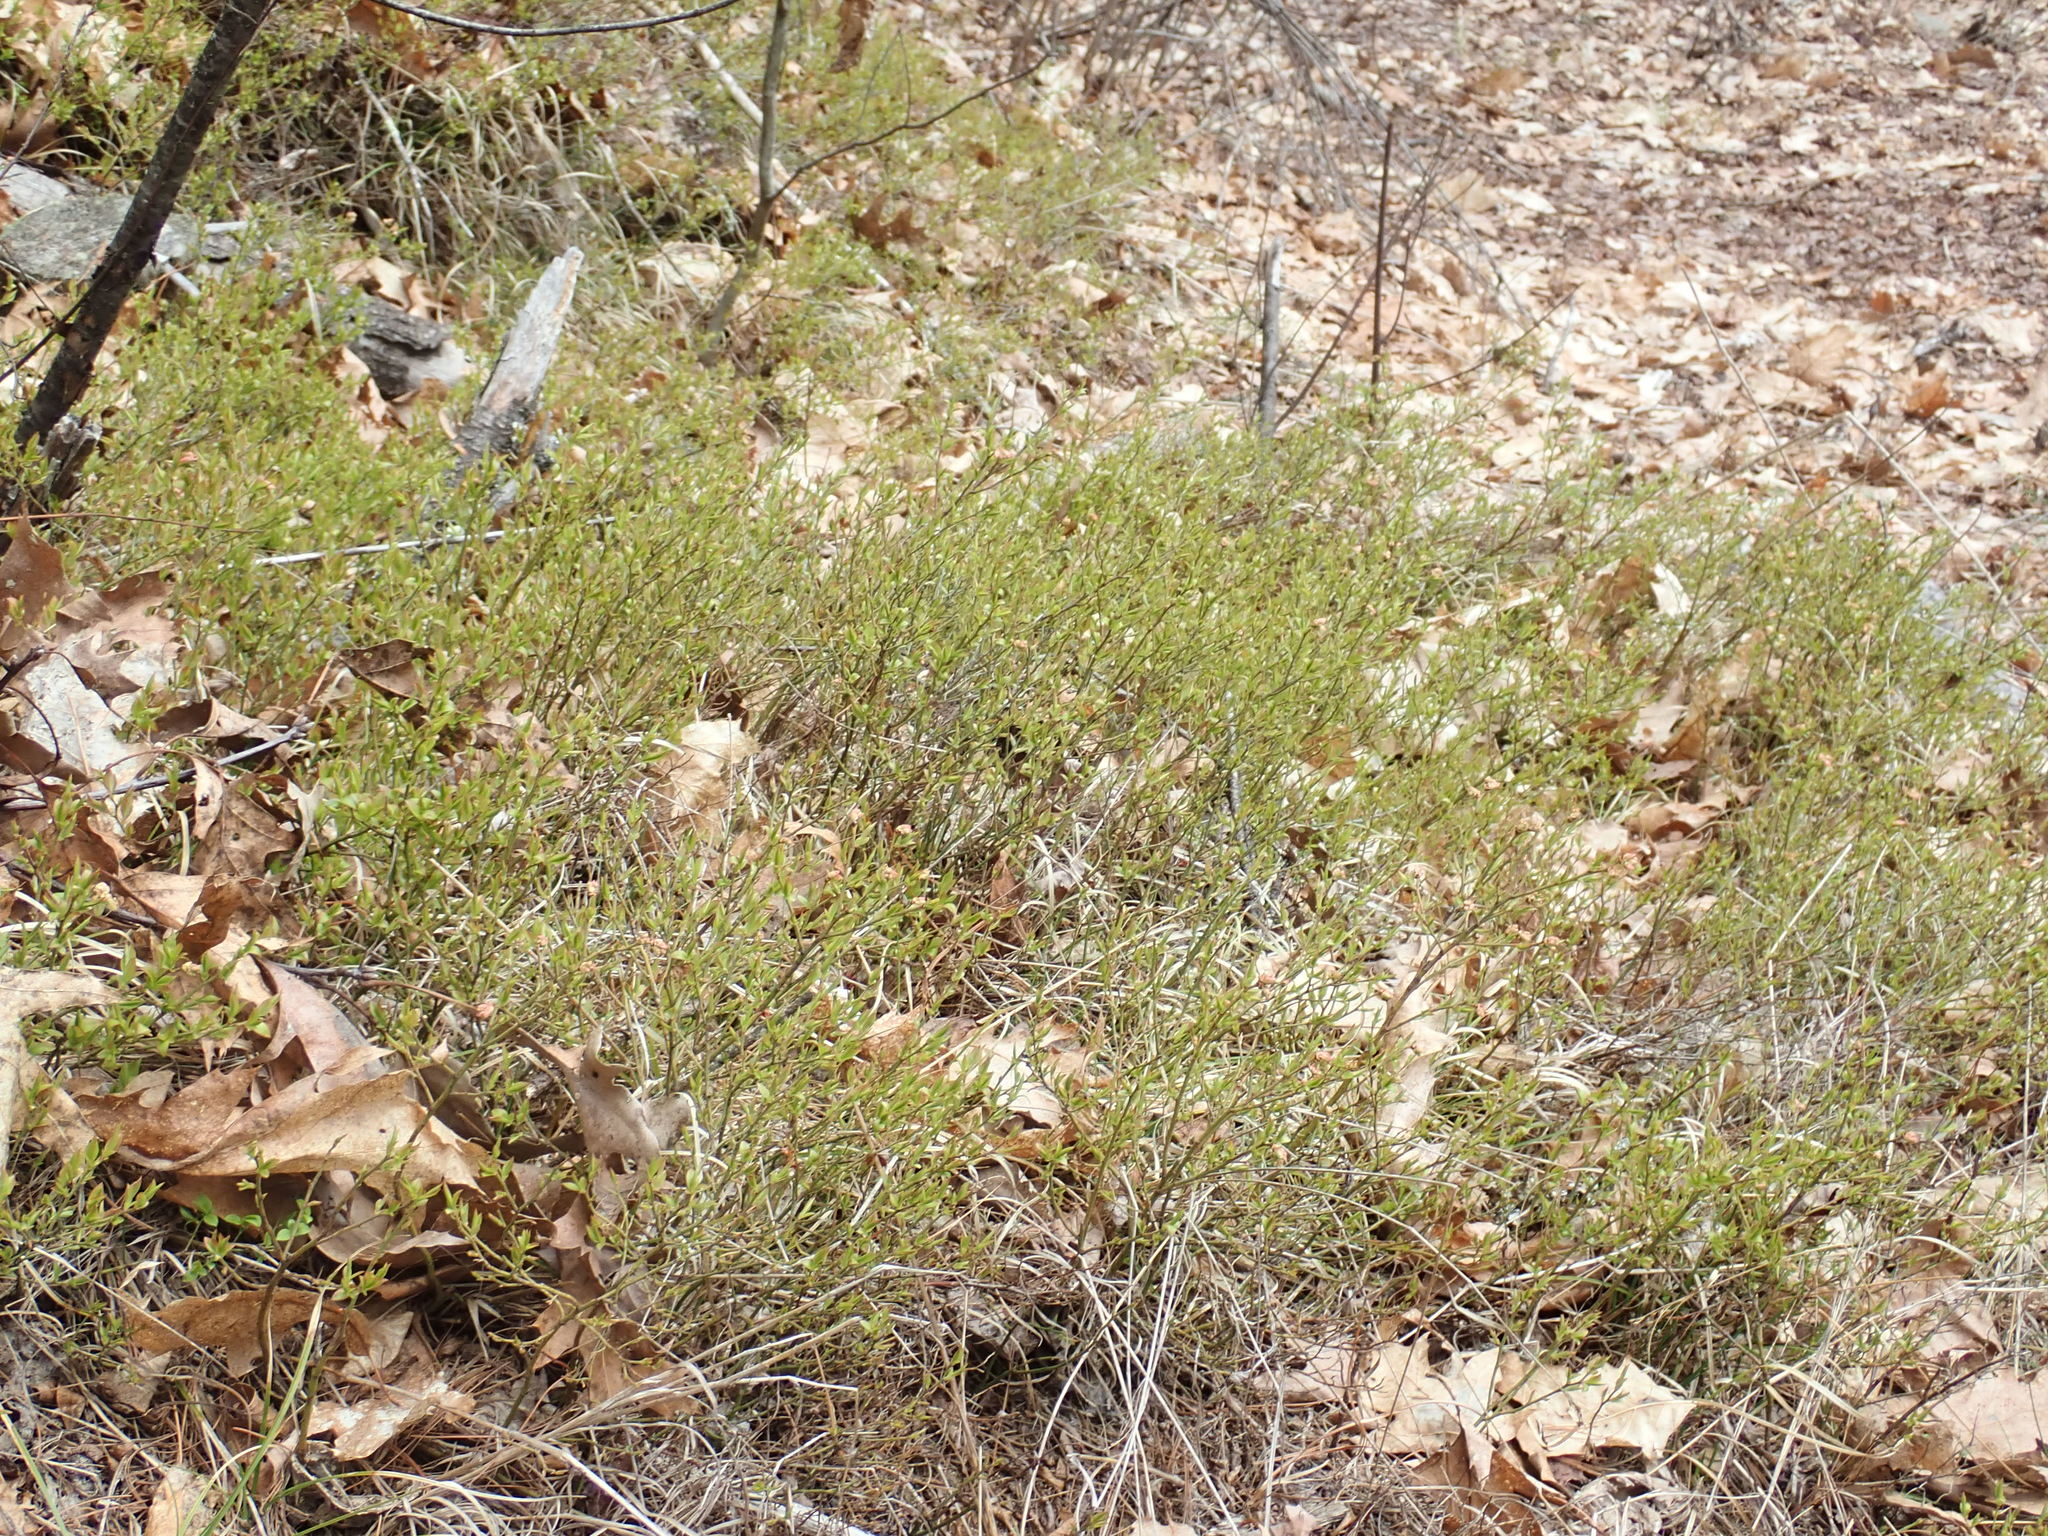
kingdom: Plantae
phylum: Tracheophyta
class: Magnoliopsida
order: Ericales
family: Ericaceae
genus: Vaccinium
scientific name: Vaccinium angustifolium
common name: Early lowbush blueberry
